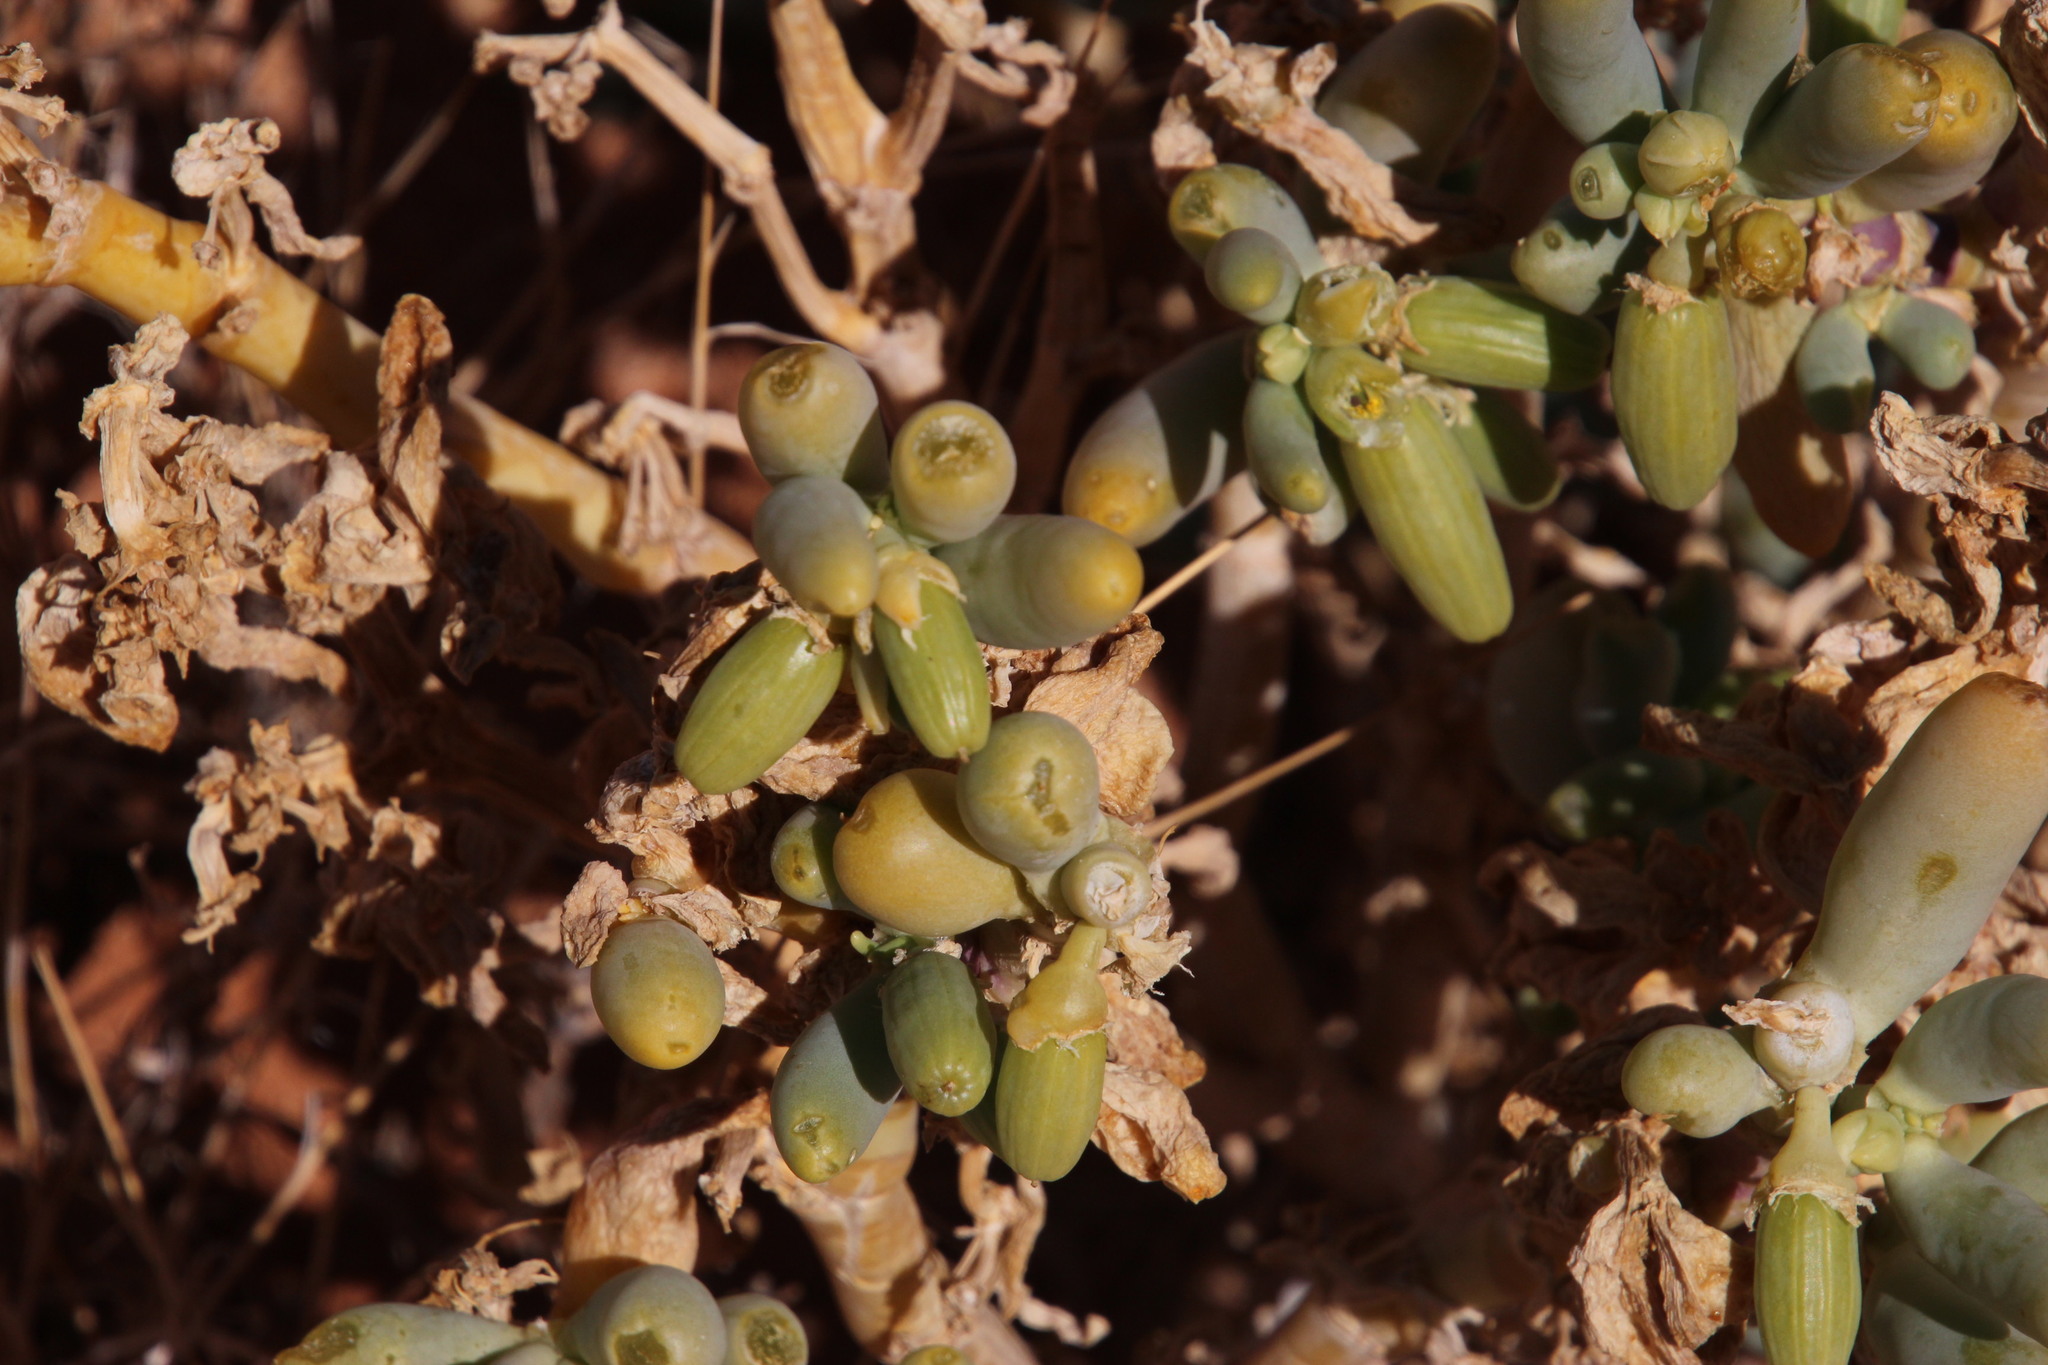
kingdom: Plantae
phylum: Tracheophyta
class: Magnoliopsida
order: Zygophyllales
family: Zygophyllaceae
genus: Augea
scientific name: Augea capensis
